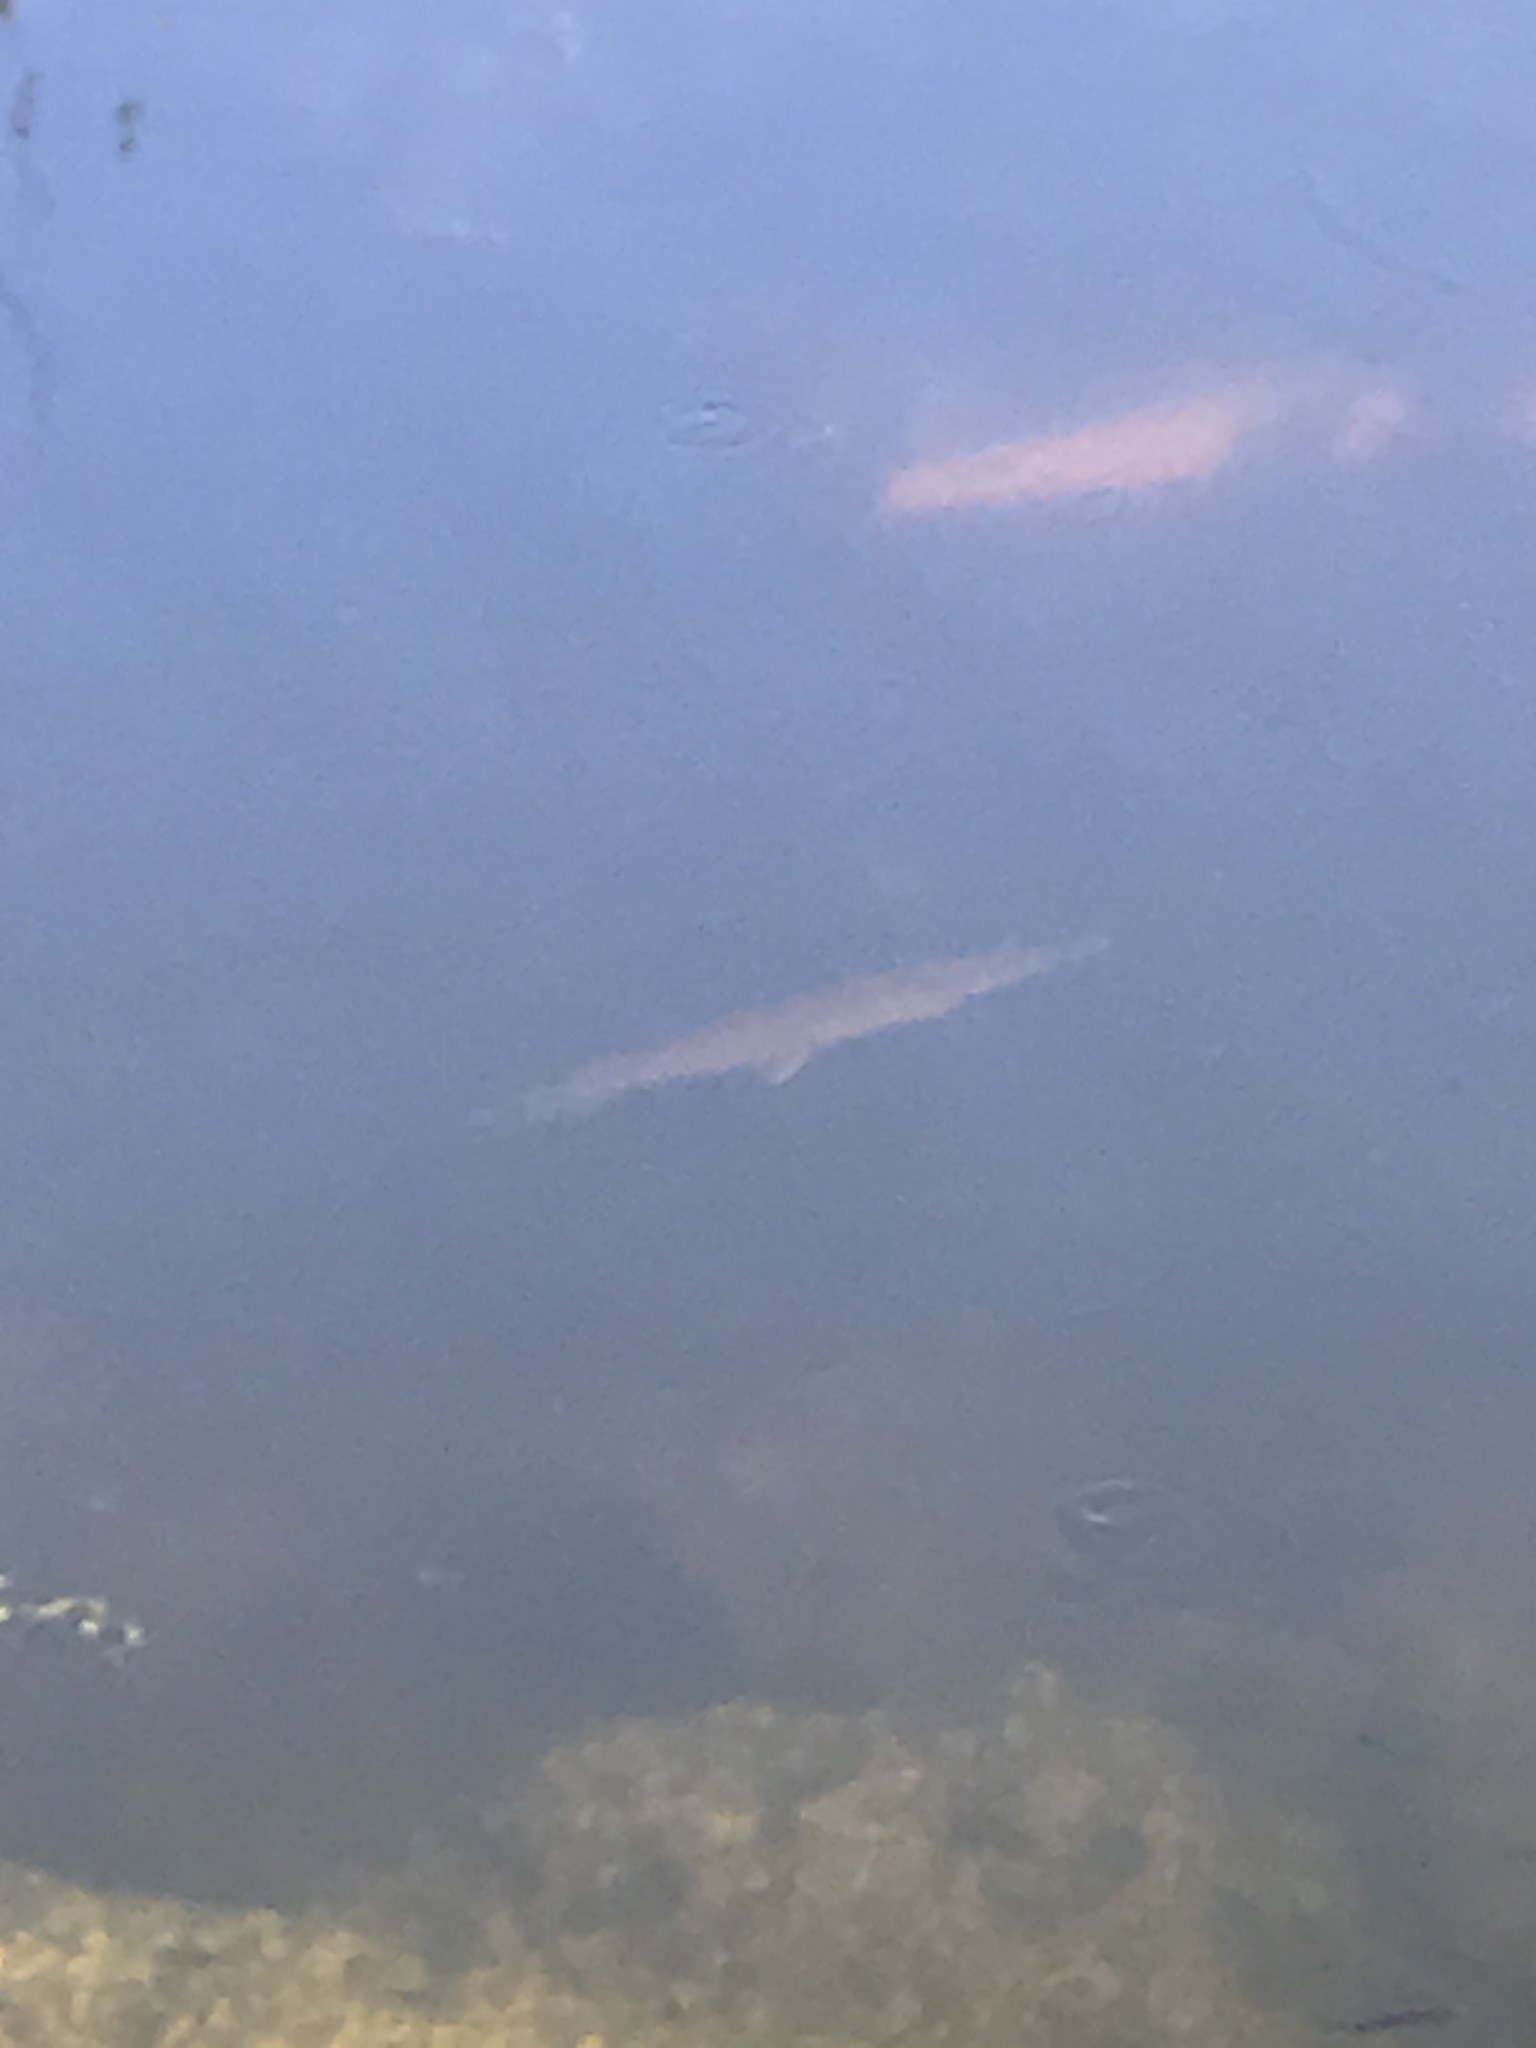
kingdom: Animalia
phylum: Chordata
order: Lepisosteiformes
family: Lepisosteidae
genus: Lepisosteus
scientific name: Lepisosteus platyrhincus
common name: Florida gar
